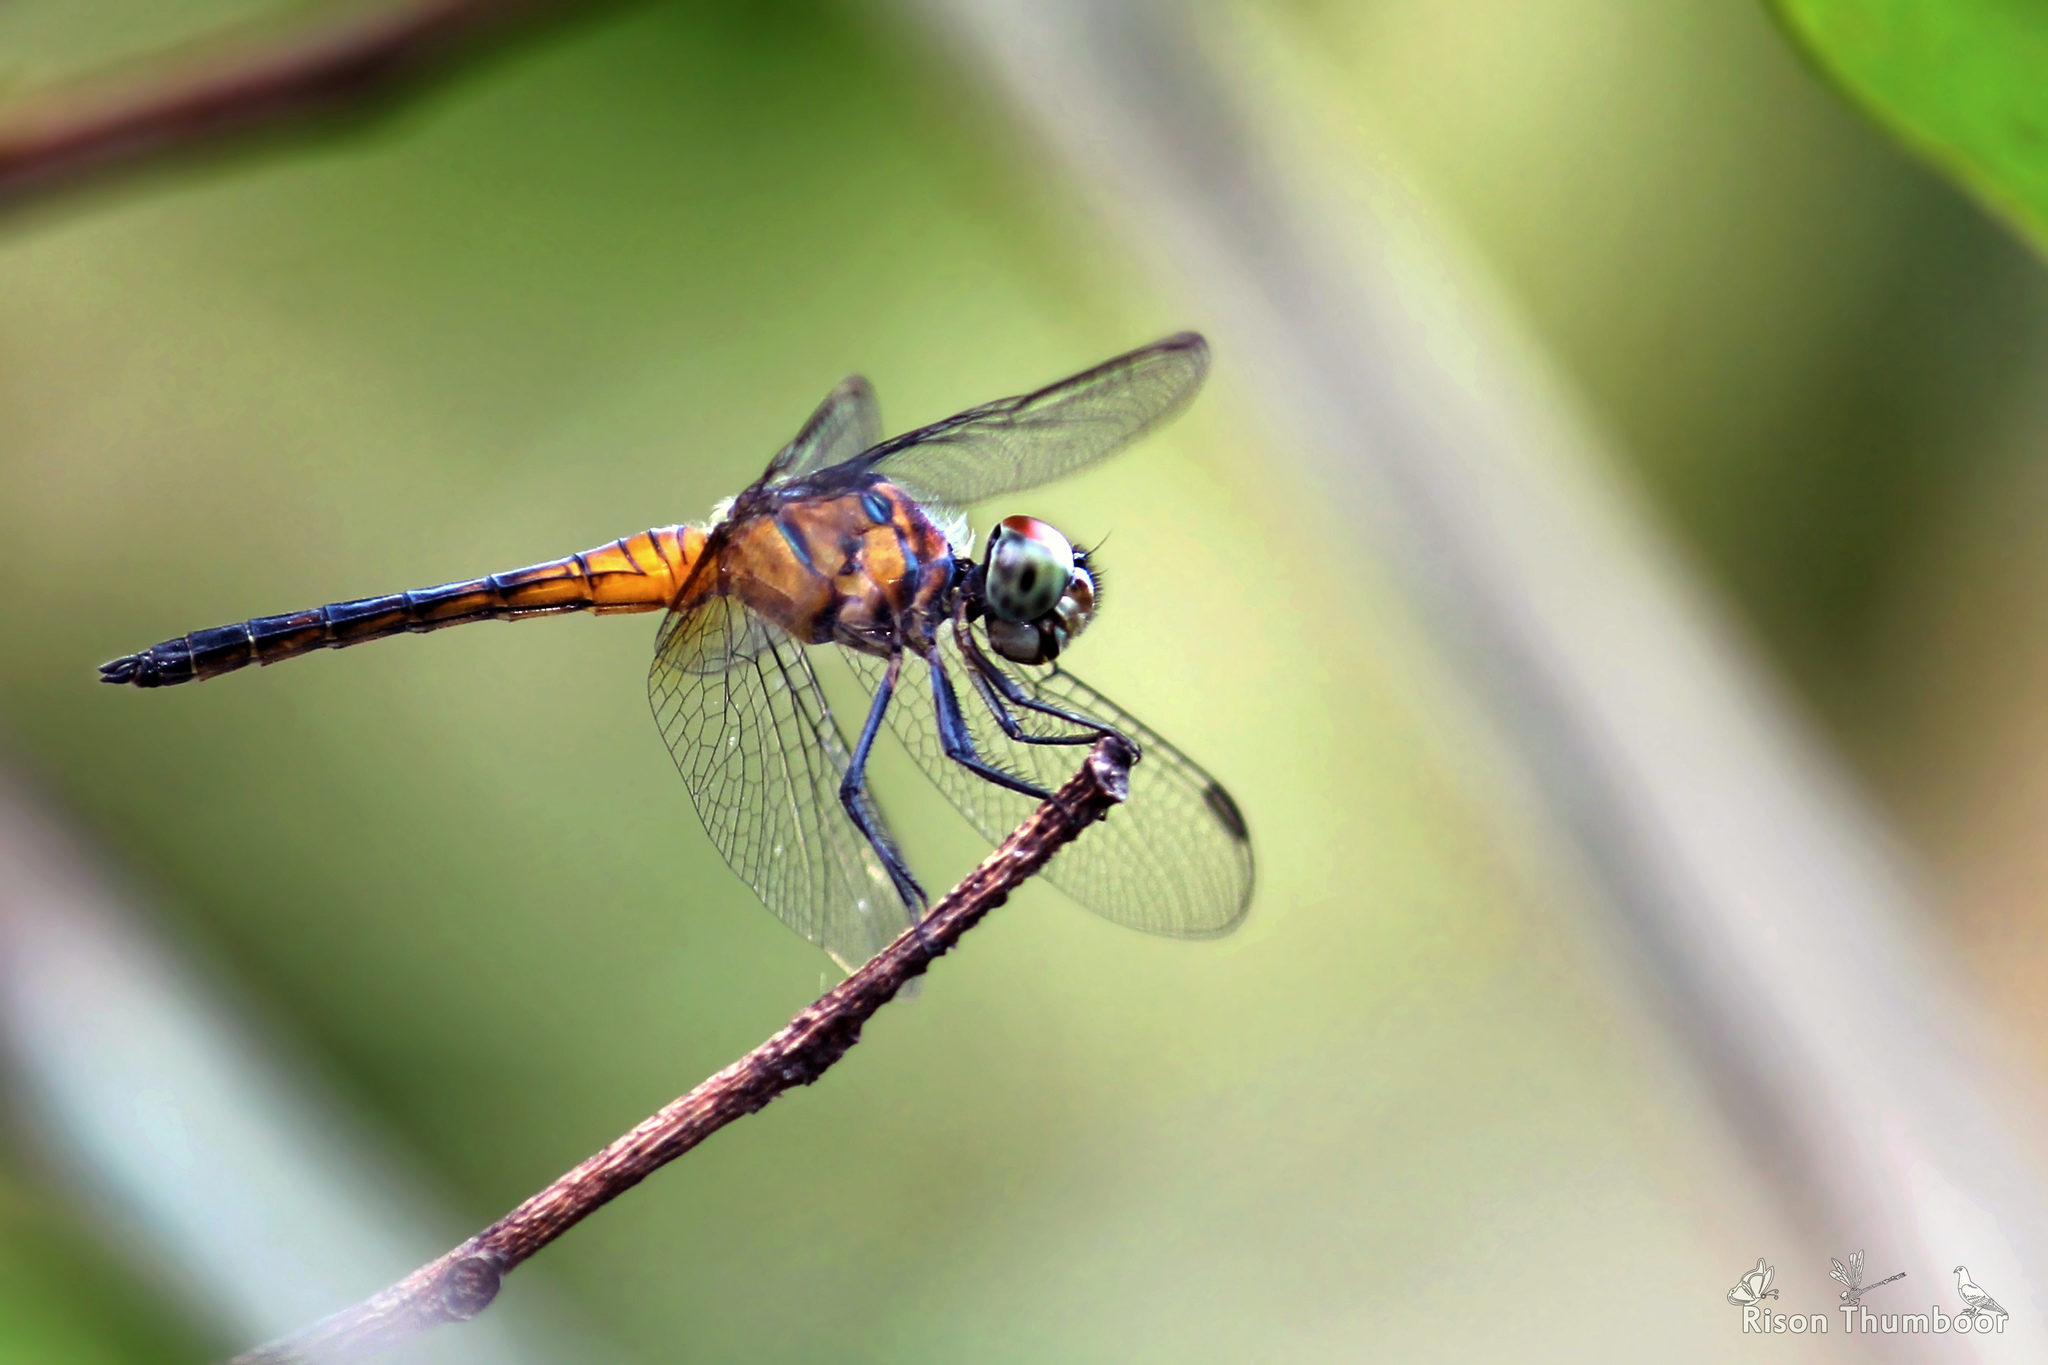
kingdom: Animalia
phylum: Arthropoda
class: Insecta
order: Odonata
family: Libellulidae
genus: Brachydiplax
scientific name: Brachydiplax chalybea
